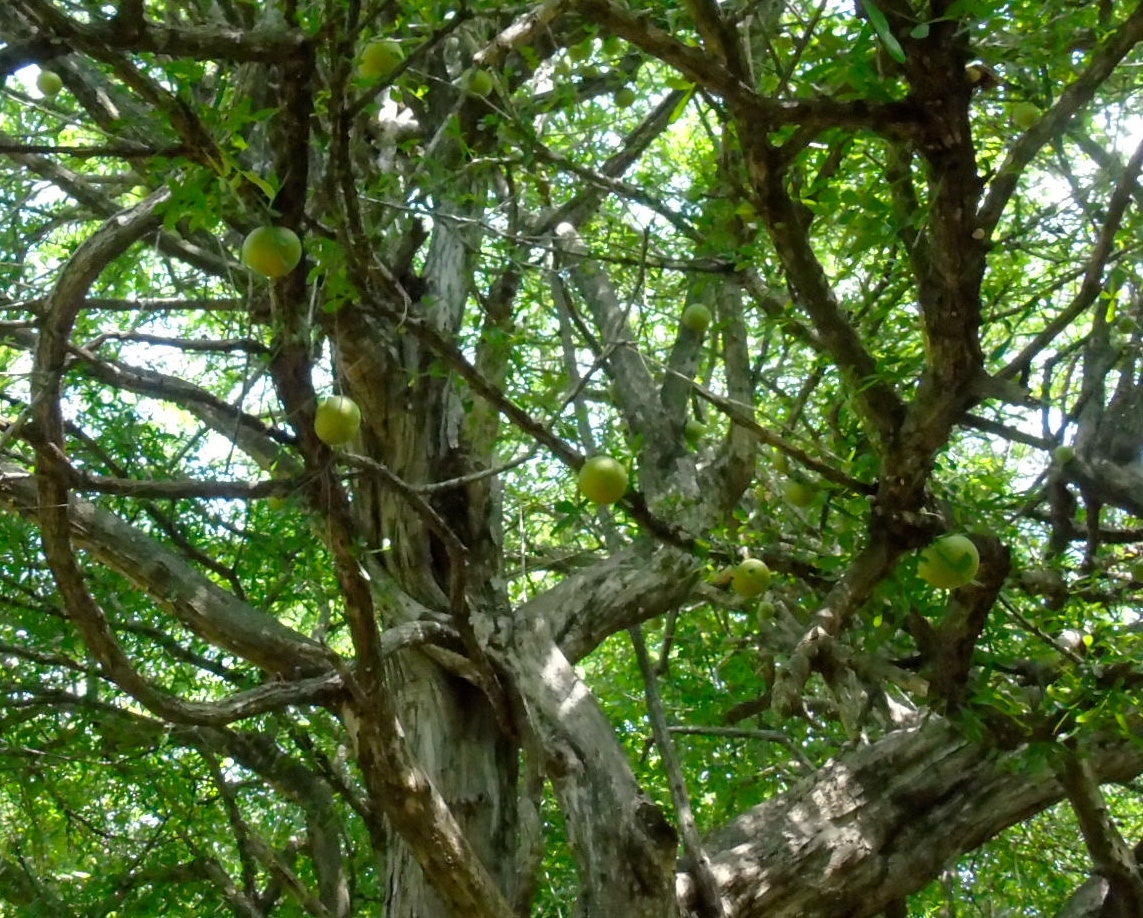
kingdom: Plantae
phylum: Tracheophyta
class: Magnoliopsida
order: Lamiales
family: Bignoniaceae
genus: Crescentia
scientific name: Crescentia alata
